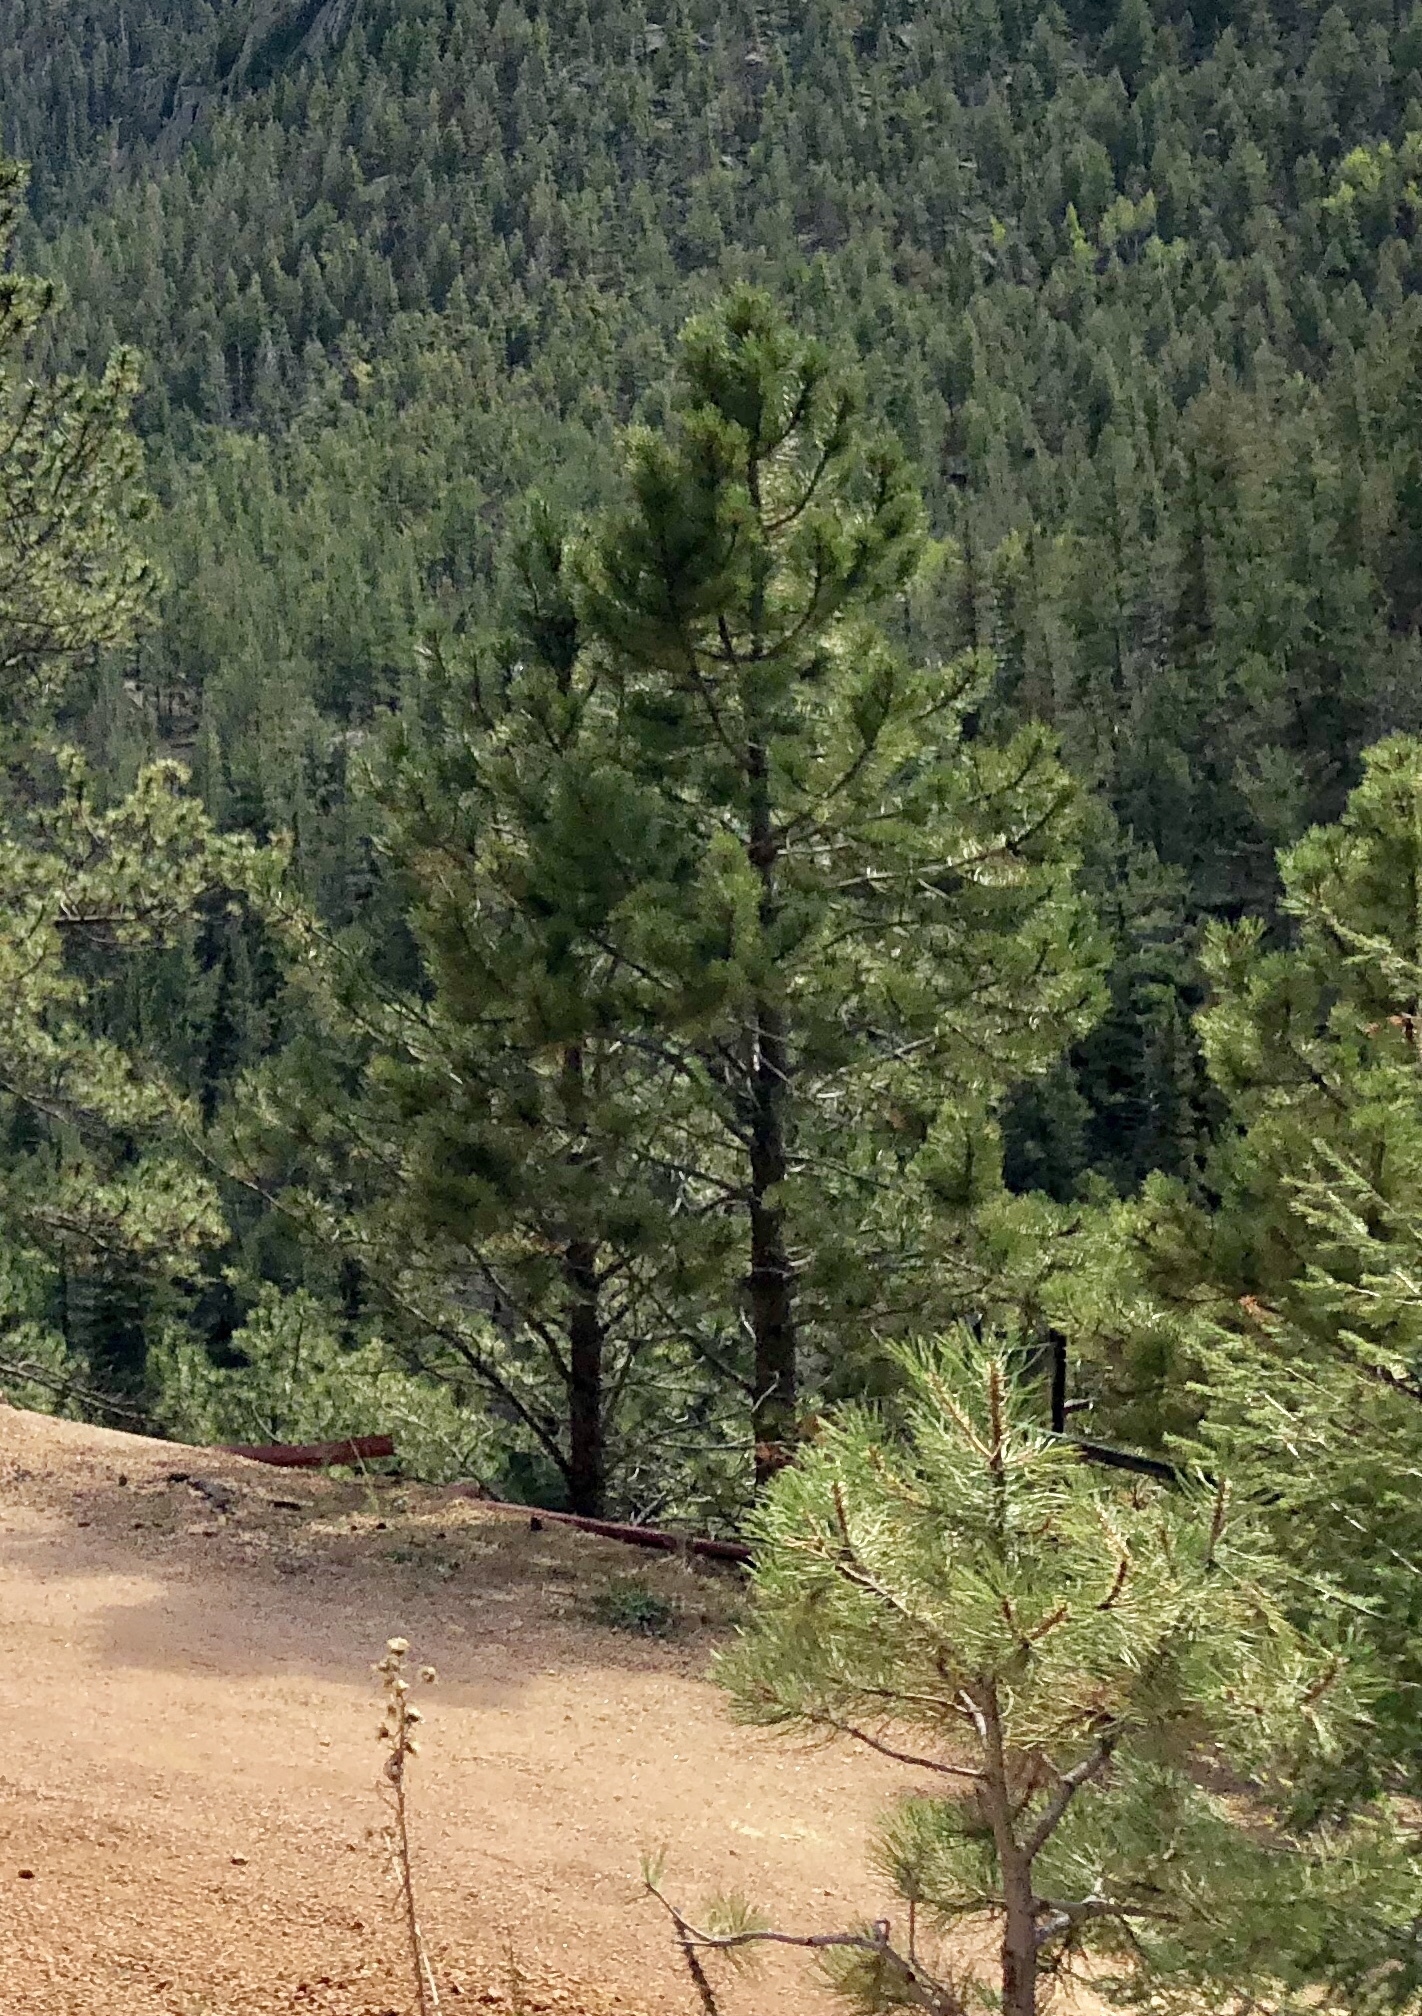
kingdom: Plantae
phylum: Tracheophyta
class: Pinopsida
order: Pinales
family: Pinaceae
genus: Pinus
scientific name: Pinus ponderosa
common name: Western yellow-pine
